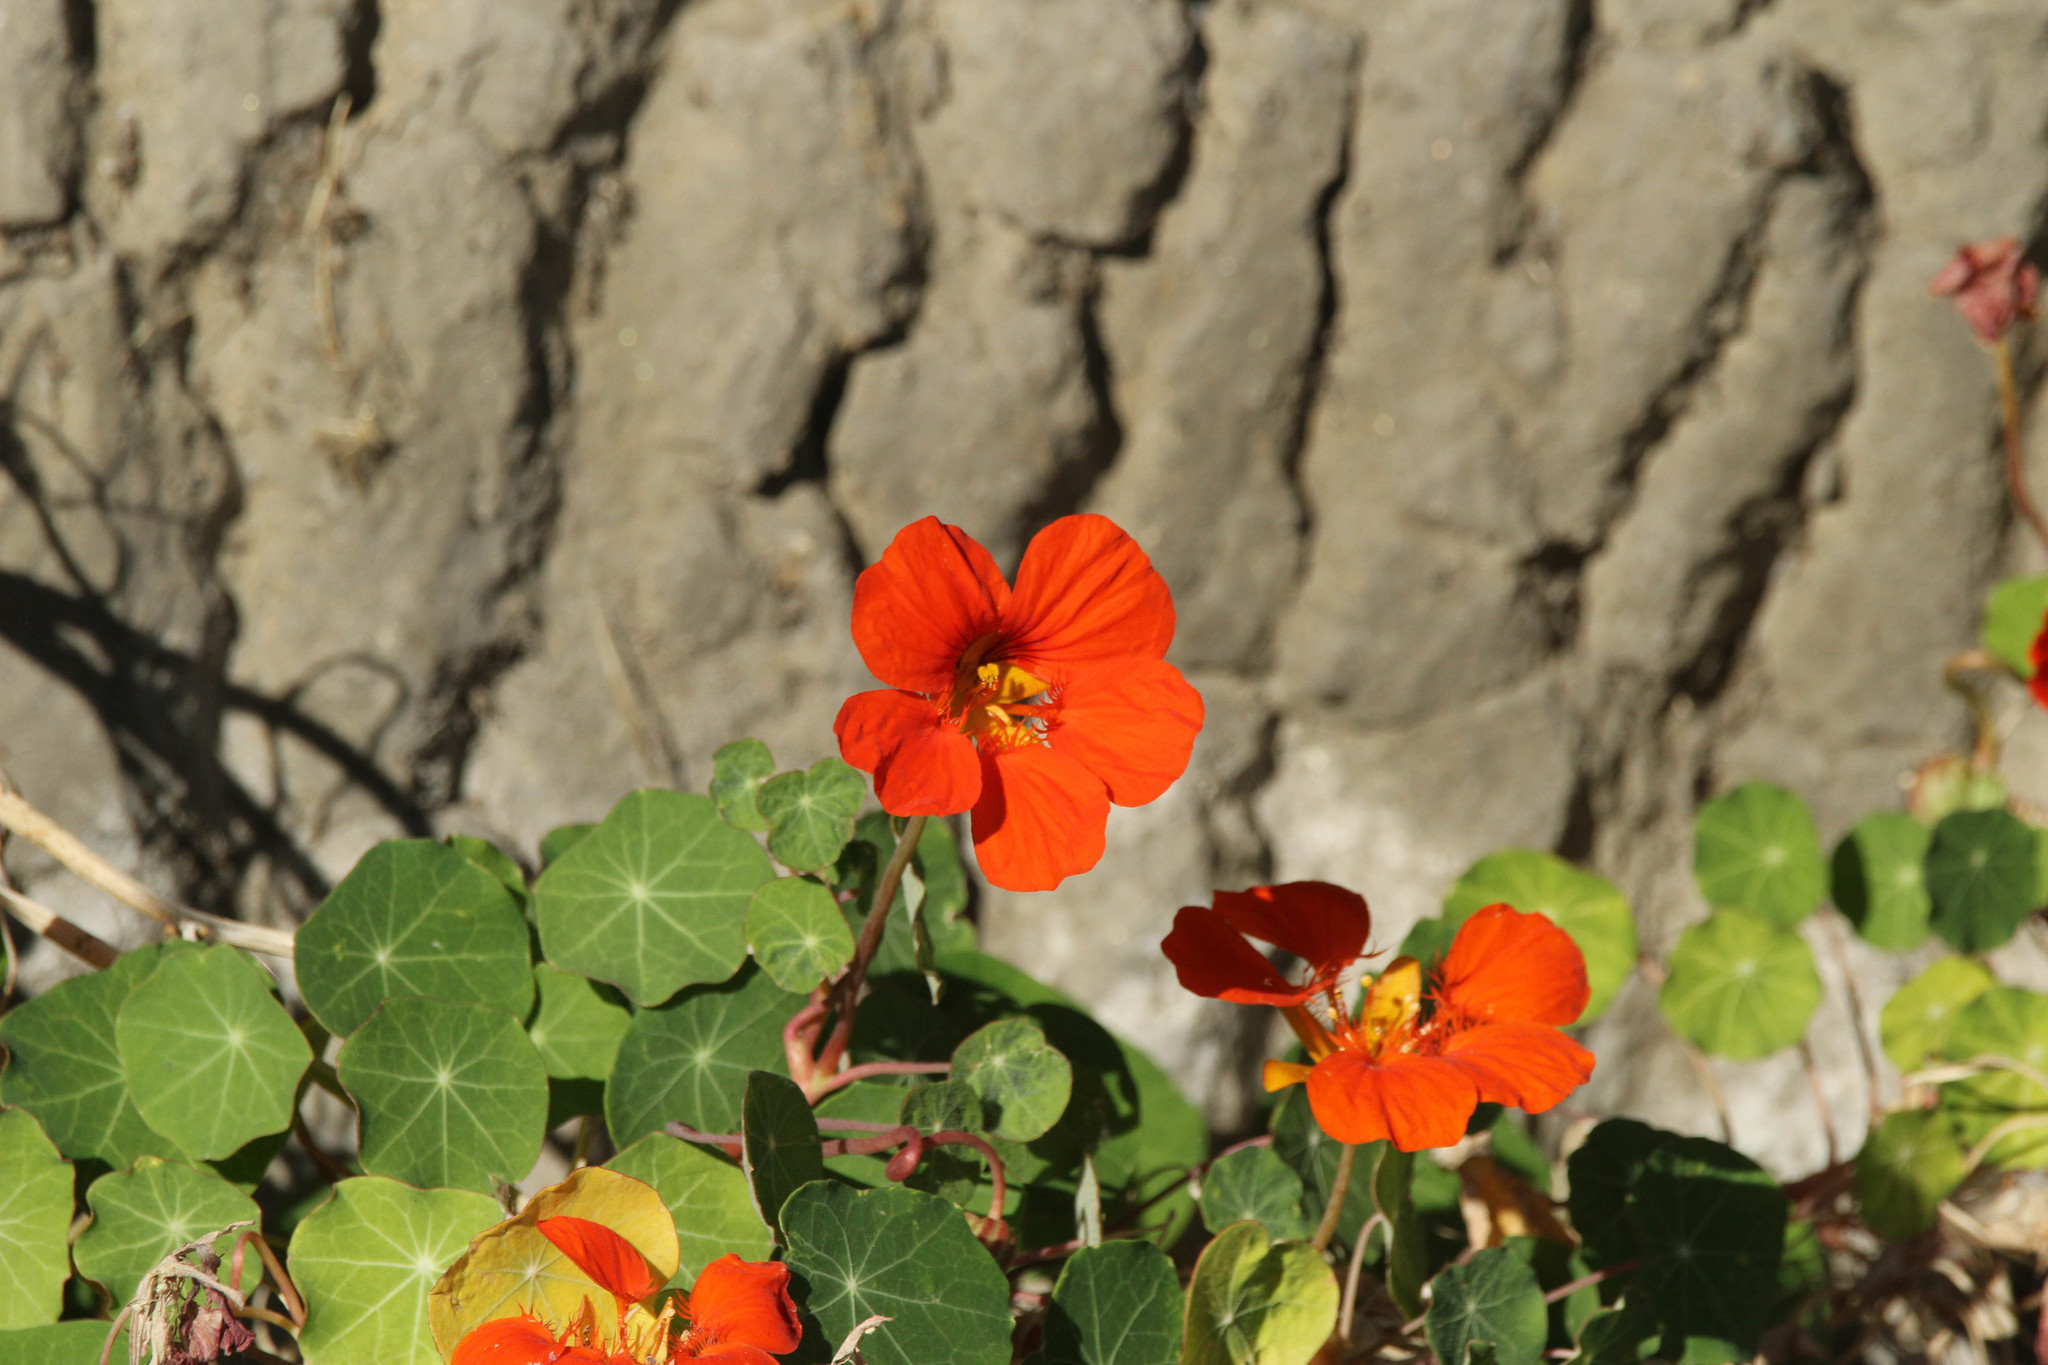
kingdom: Plantae
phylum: Tracheophyta
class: Magnoliopsida
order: Brassicales
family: Tropaeolaceae
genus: Tropaeolum
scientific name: Tropaeolum majus
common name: Nasturtium
